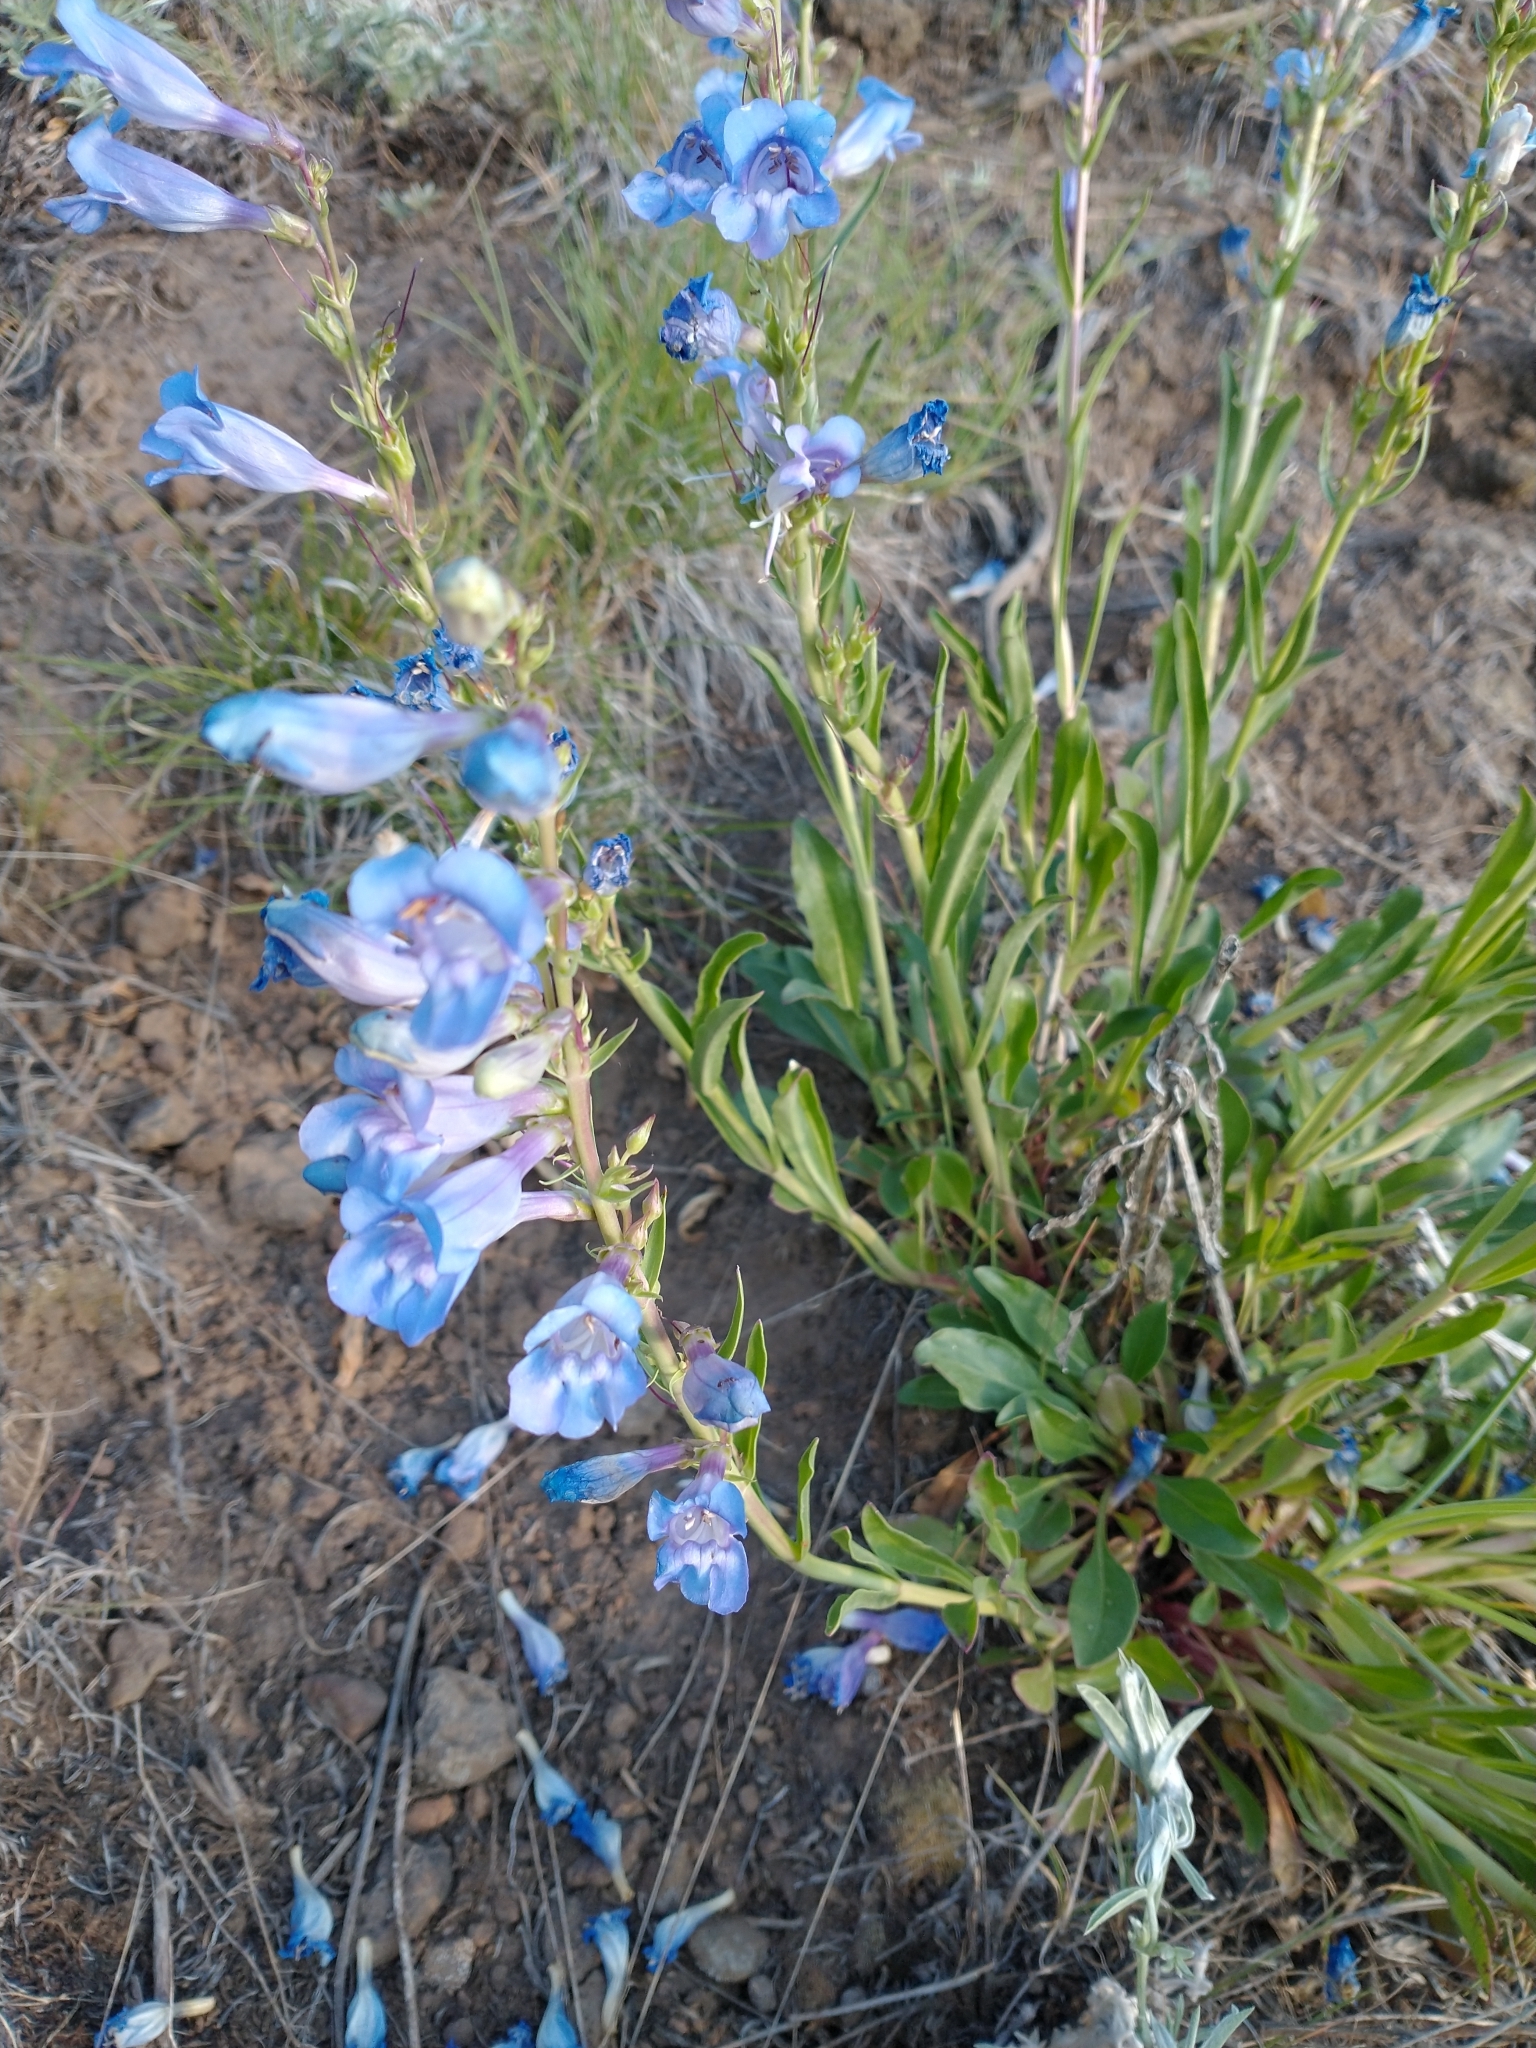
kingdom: Plantae
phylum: Tracheophyta
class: Magnoliopsida
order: Lamiales
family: Plantaginaceae
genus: Penstemon
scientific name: Penstemon speciosus
